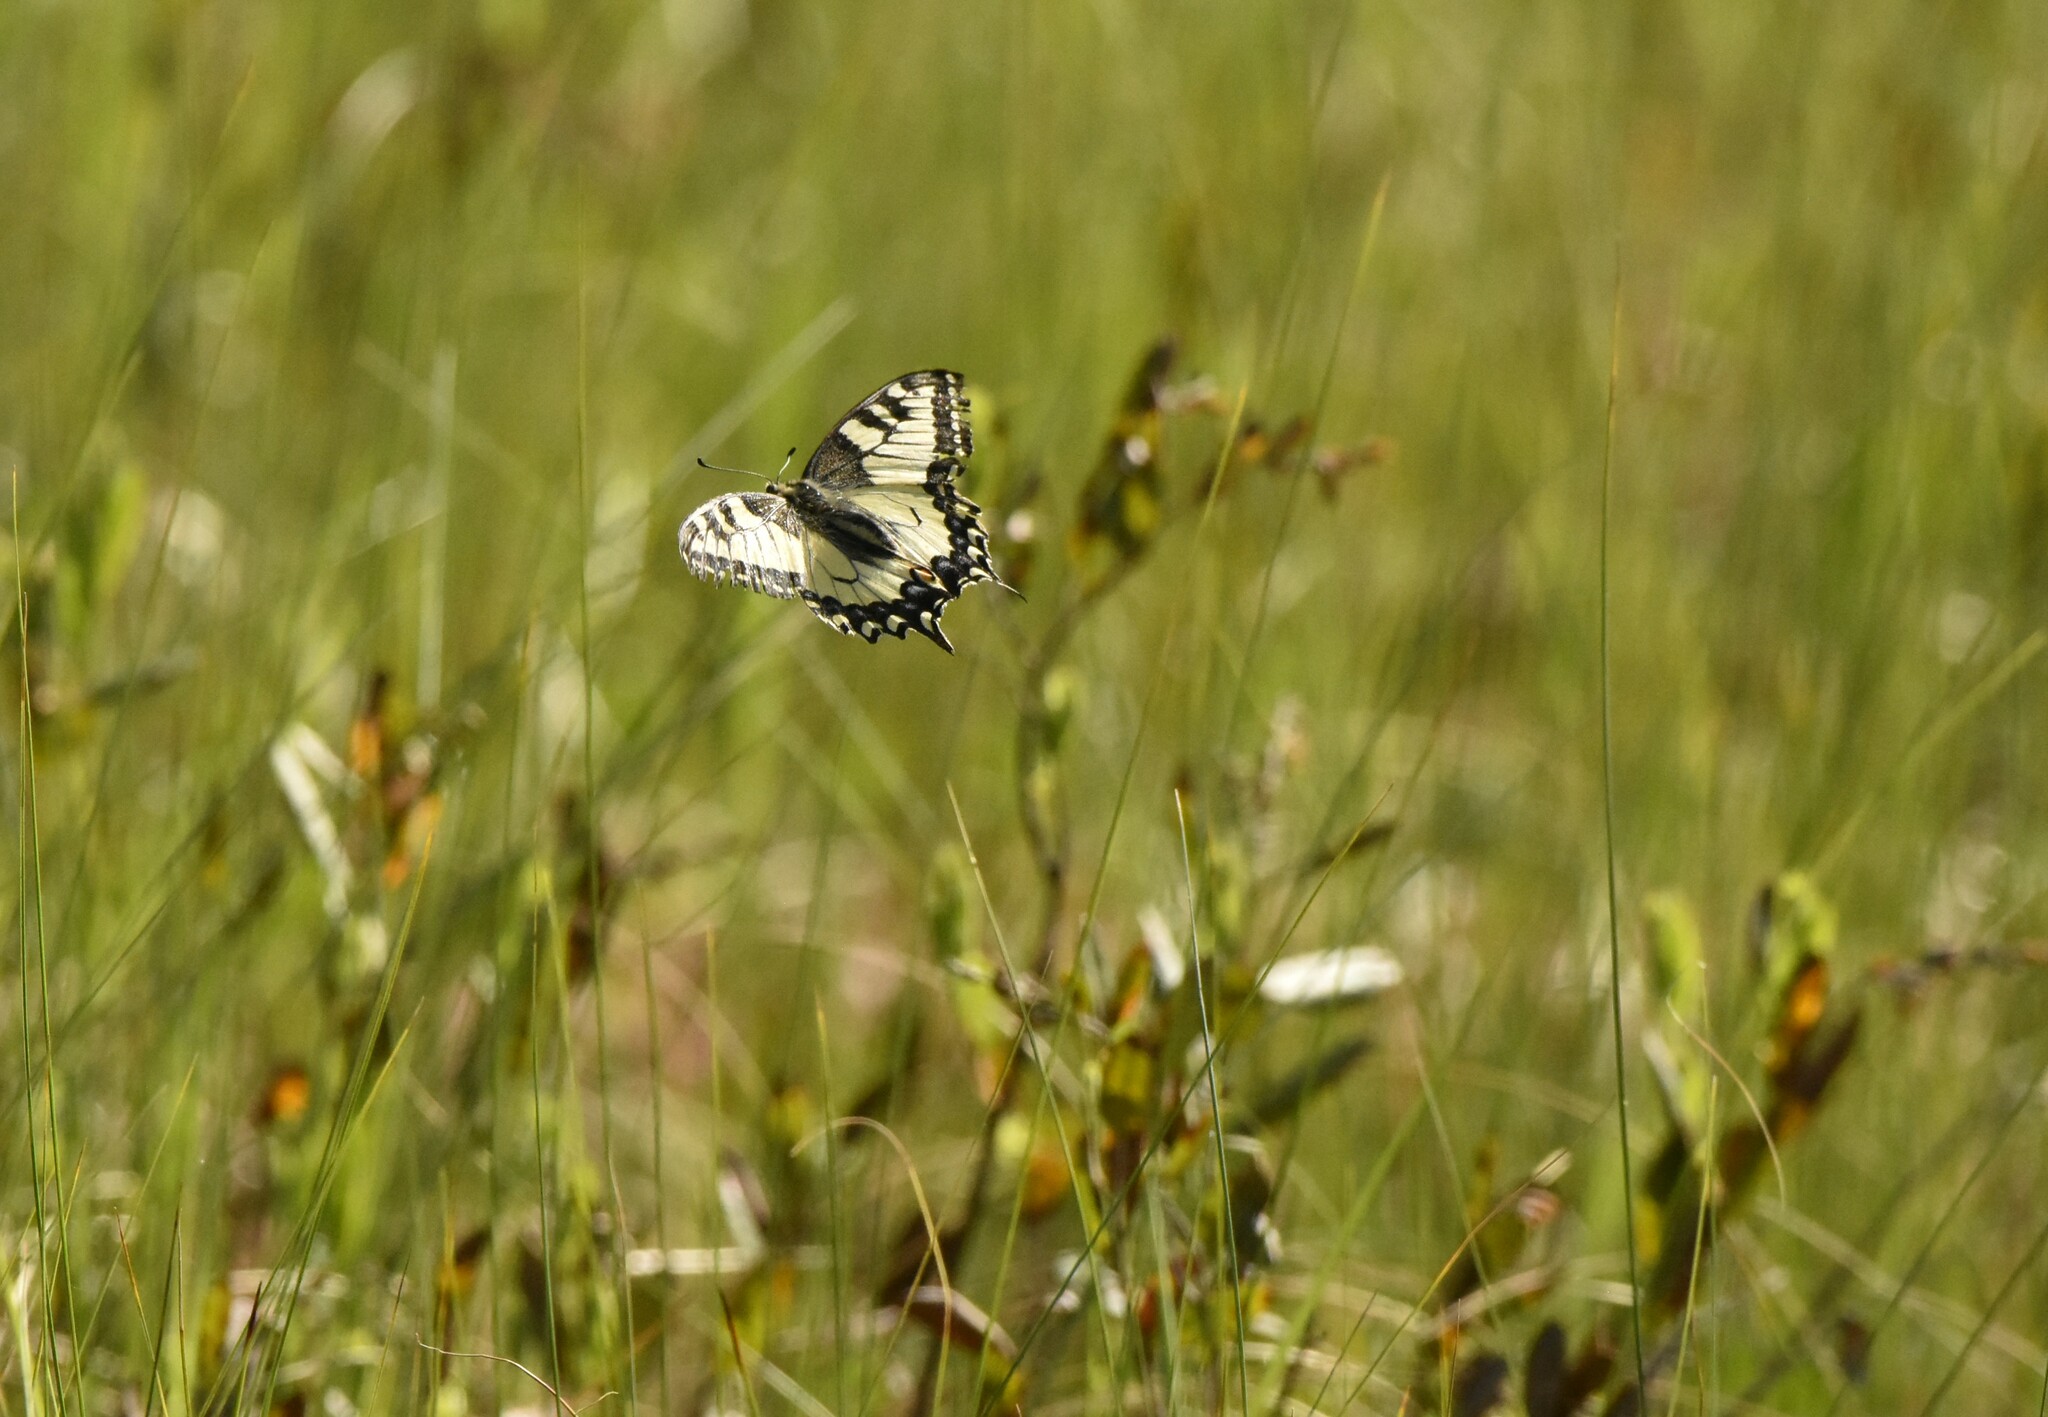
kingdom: Animalia
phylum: Arthropoda
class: Insecta
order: Lepidoptera
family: Papilionidae
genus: Papilio
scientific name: Papilio machaon
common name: Swallowtail
